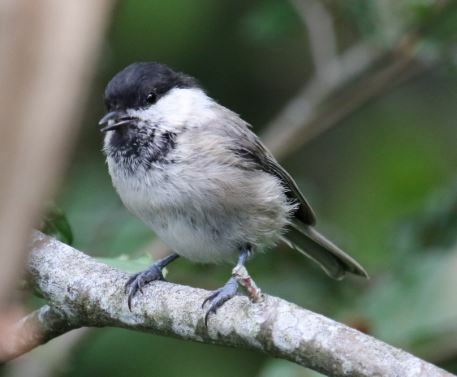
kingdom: Animalia
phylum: Chordata
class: Aves
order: Passeriformes
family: Paridae
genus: Poecile
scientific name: Poecile montanus
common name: Willow tit
